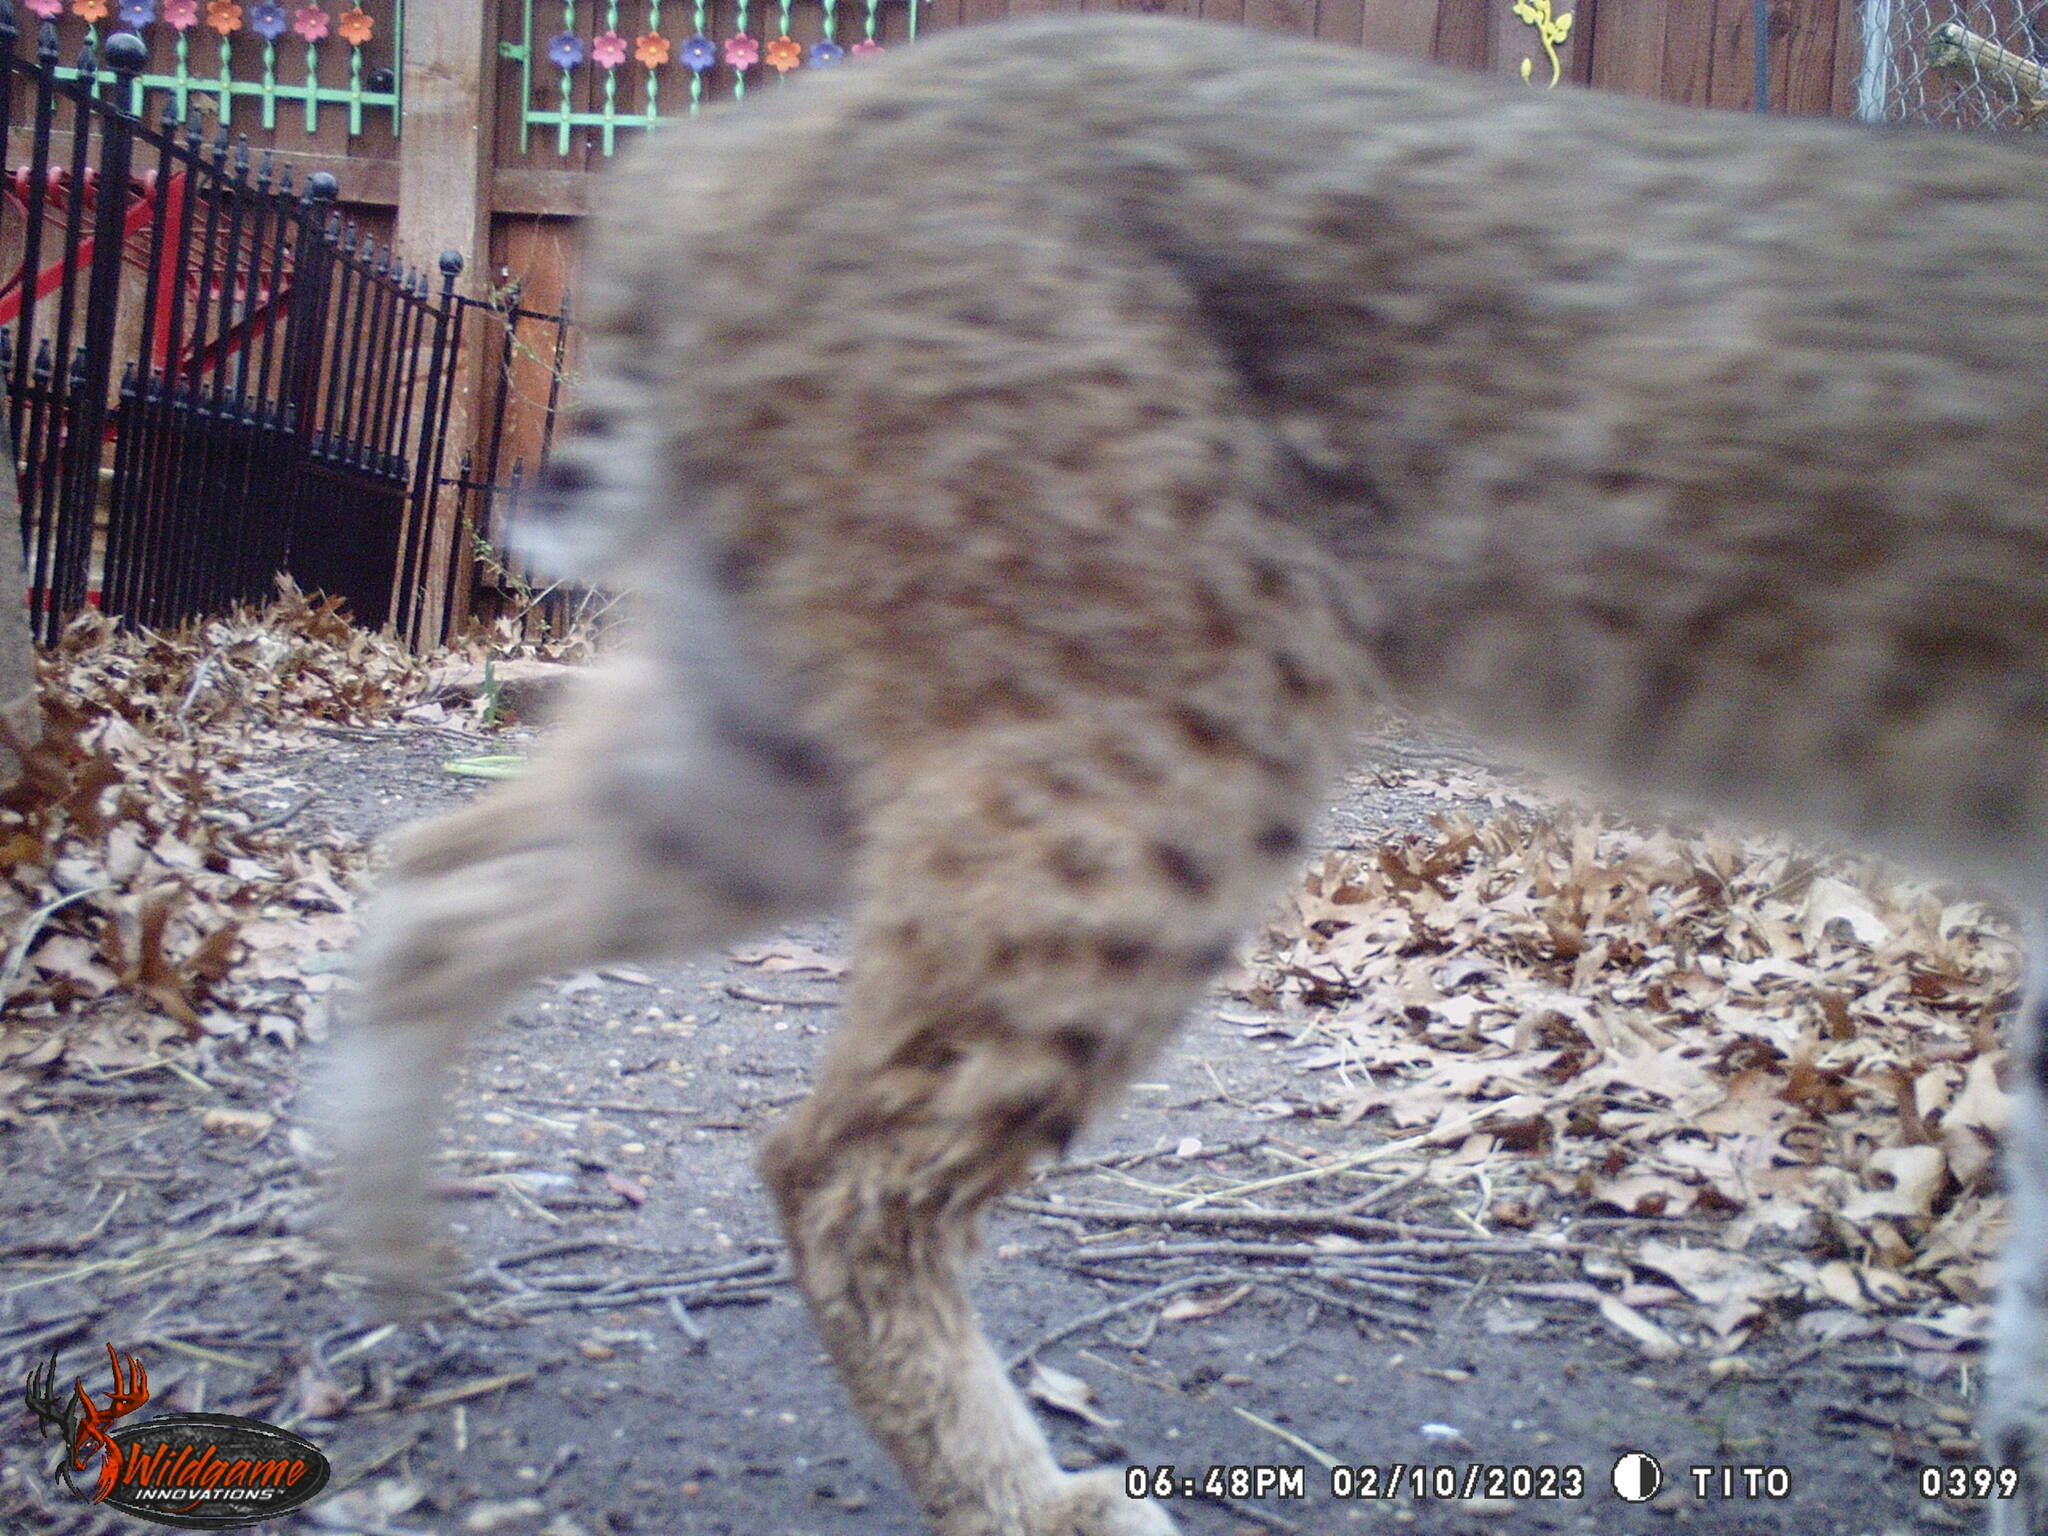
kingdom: Animalia
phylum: Chordata
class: Mammalia
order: Carnivora
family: Felidae
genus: Lynx
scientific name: Lynx rufus
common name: Bobcat
